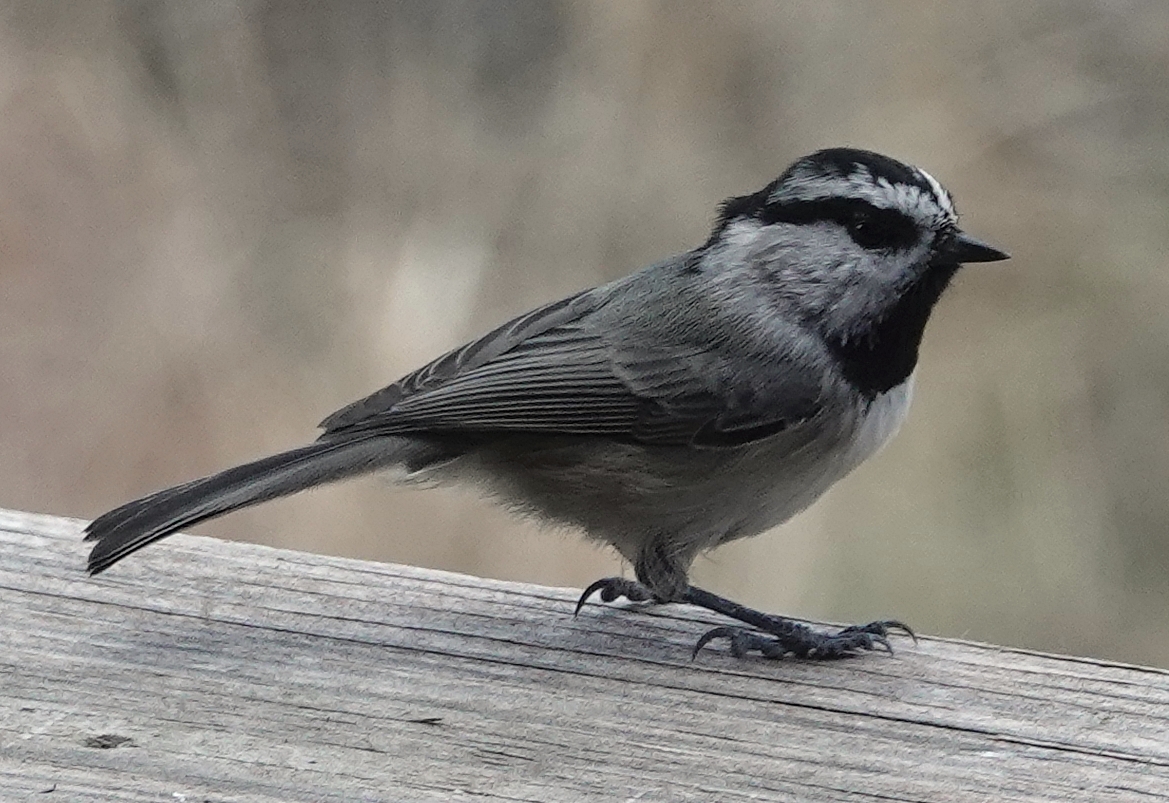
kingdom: Animalia
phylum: Chordata
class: Aves
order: Passeriformes
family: Paridae
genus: Poecile
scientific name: Poecile gambeli
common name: Mountain chickadee
